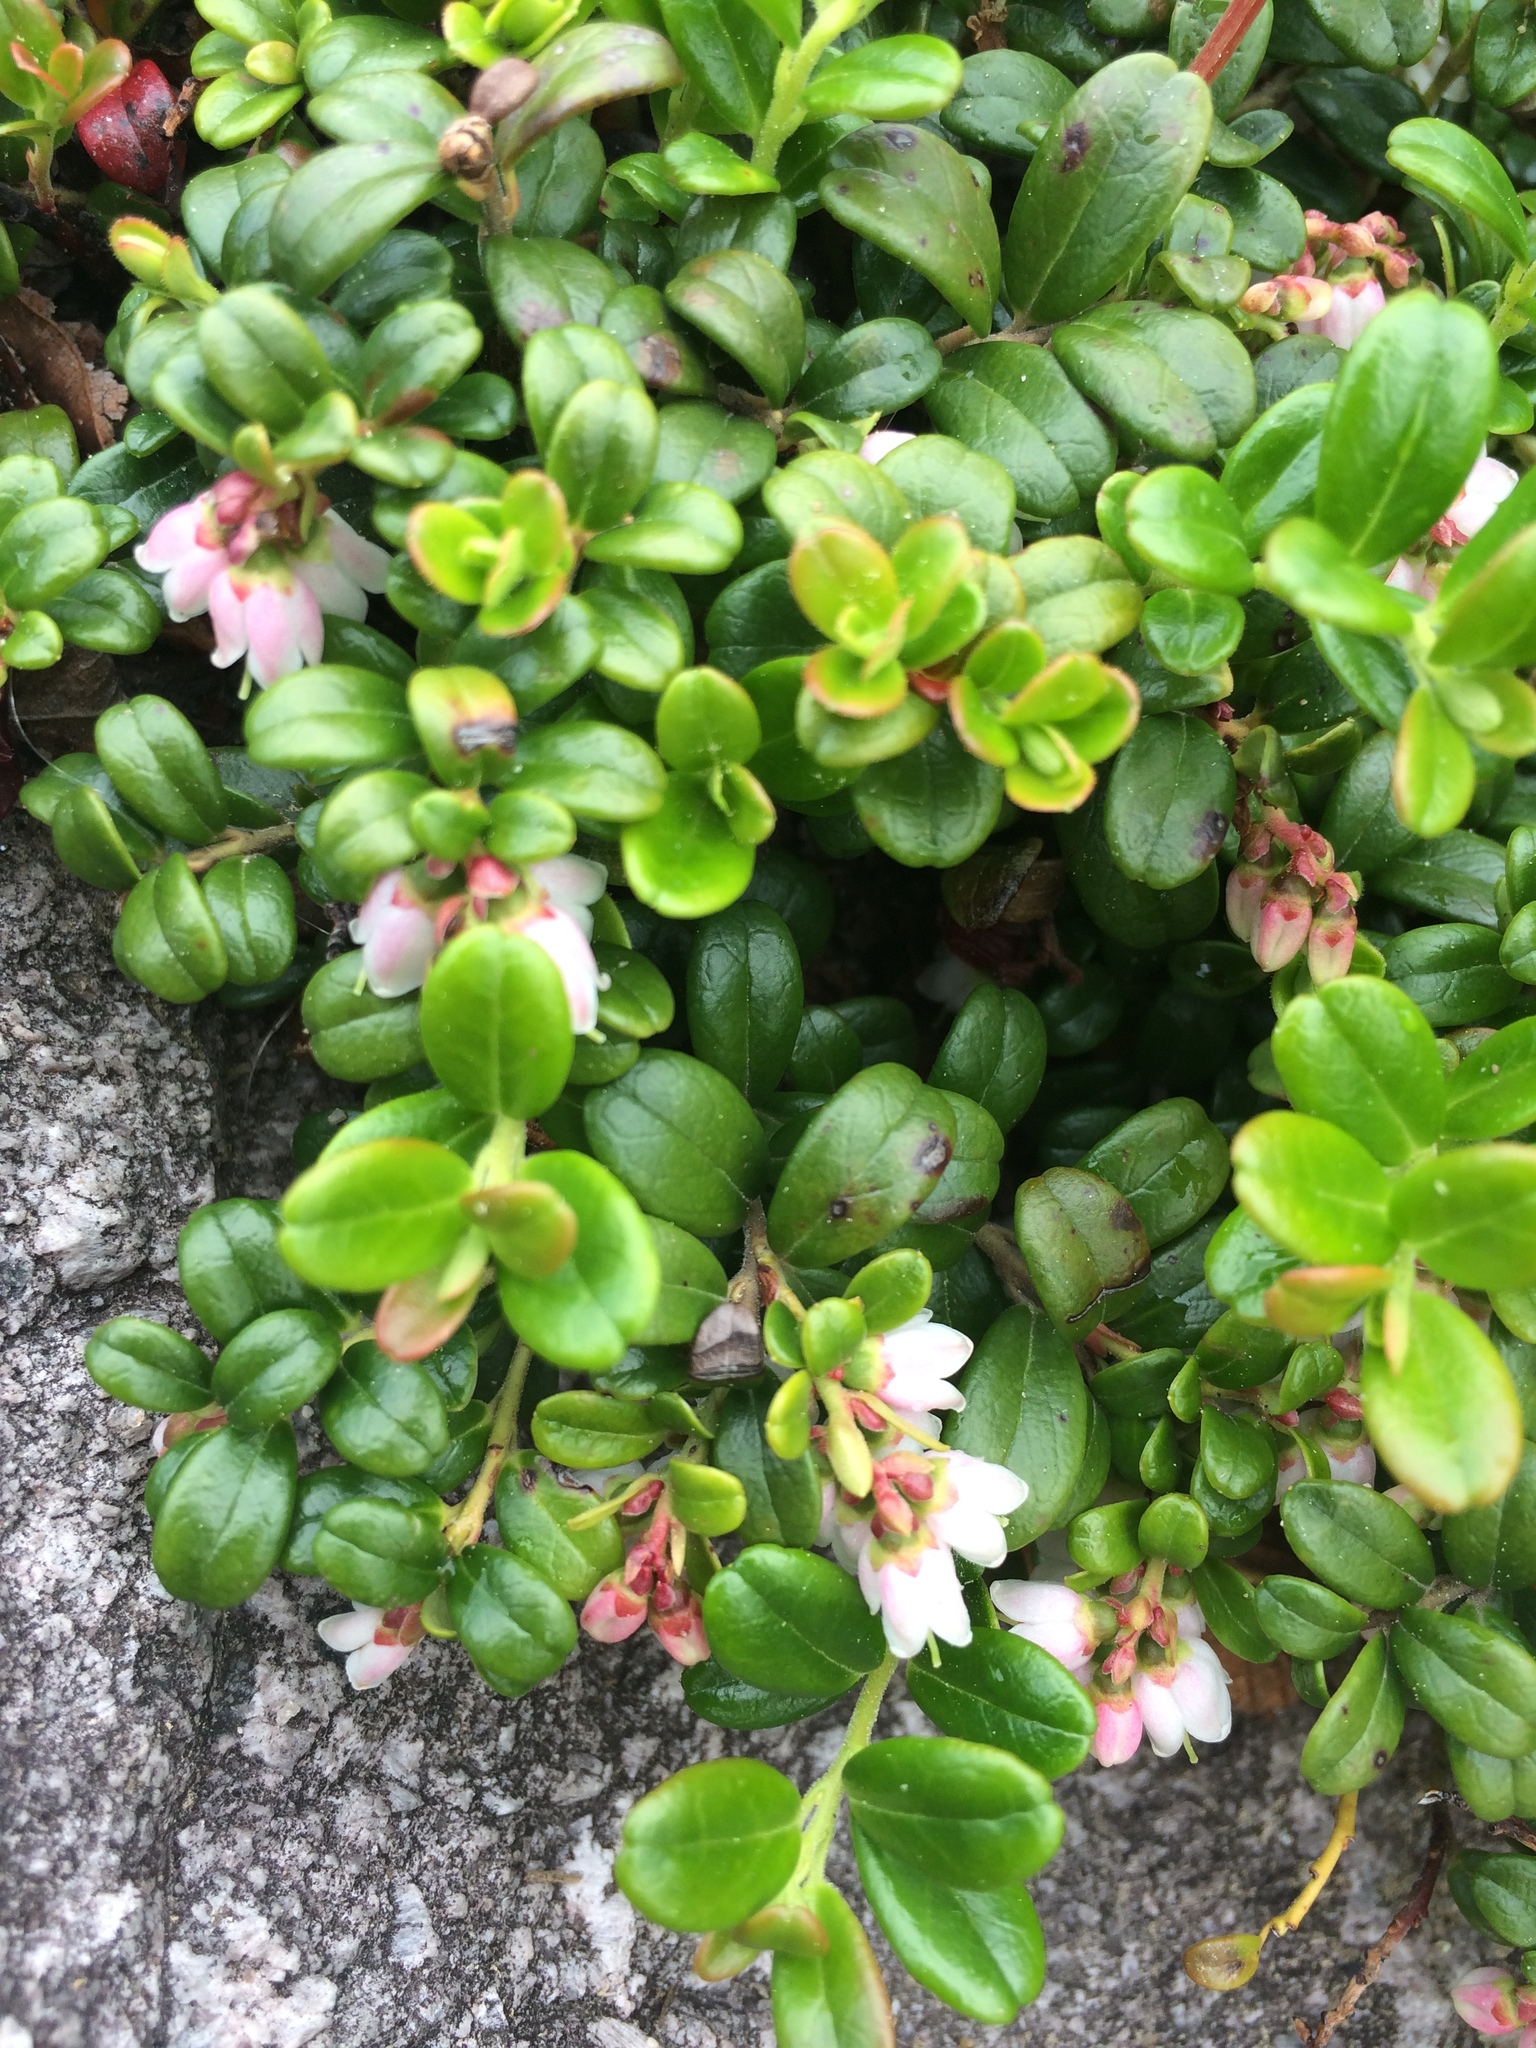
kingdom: Plantae
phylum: Tracheophyta
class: Magnoliopsida
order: Ericales
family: Ericaceae
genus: Vaccinium
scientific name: Vaccinium vitis-idaea
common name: Cowberry
